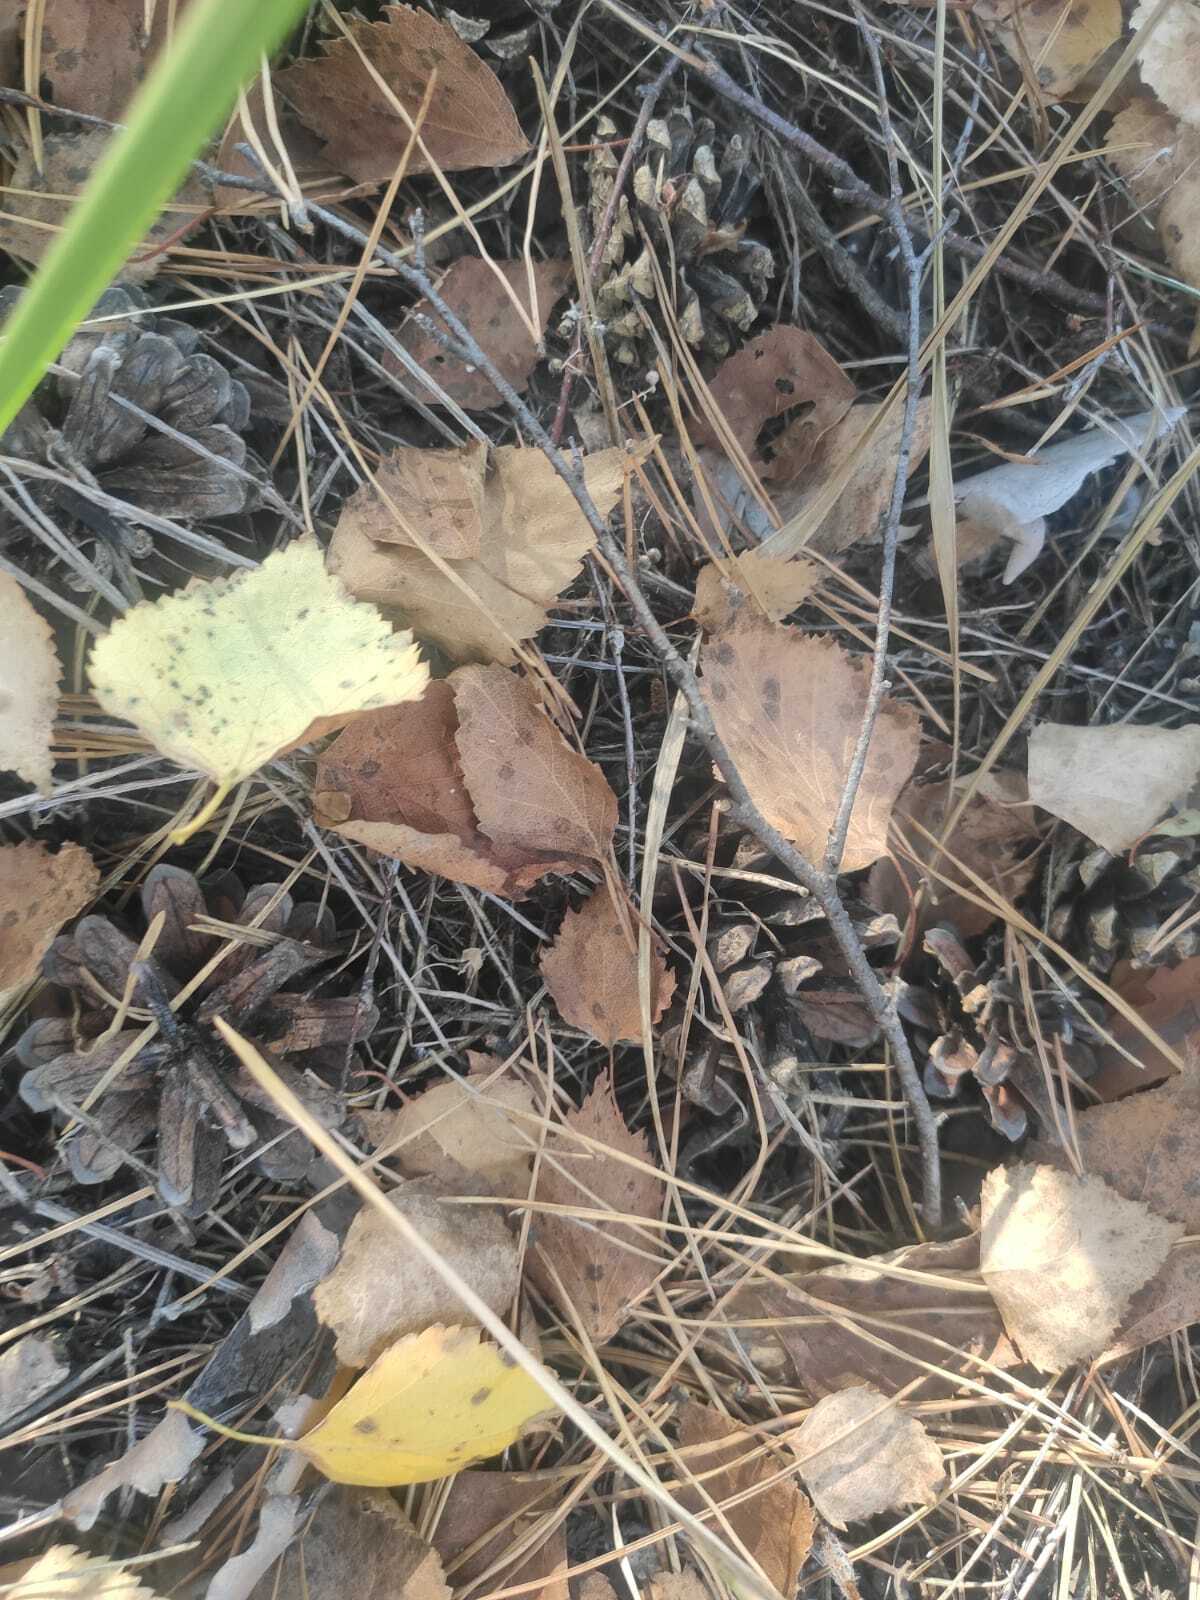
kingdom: Plantae
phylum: Tracheophyta
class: Magnoliopsida
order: Fagales
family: Betulaceae
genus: Betula
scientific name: Betula pendula
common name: Silver birch
